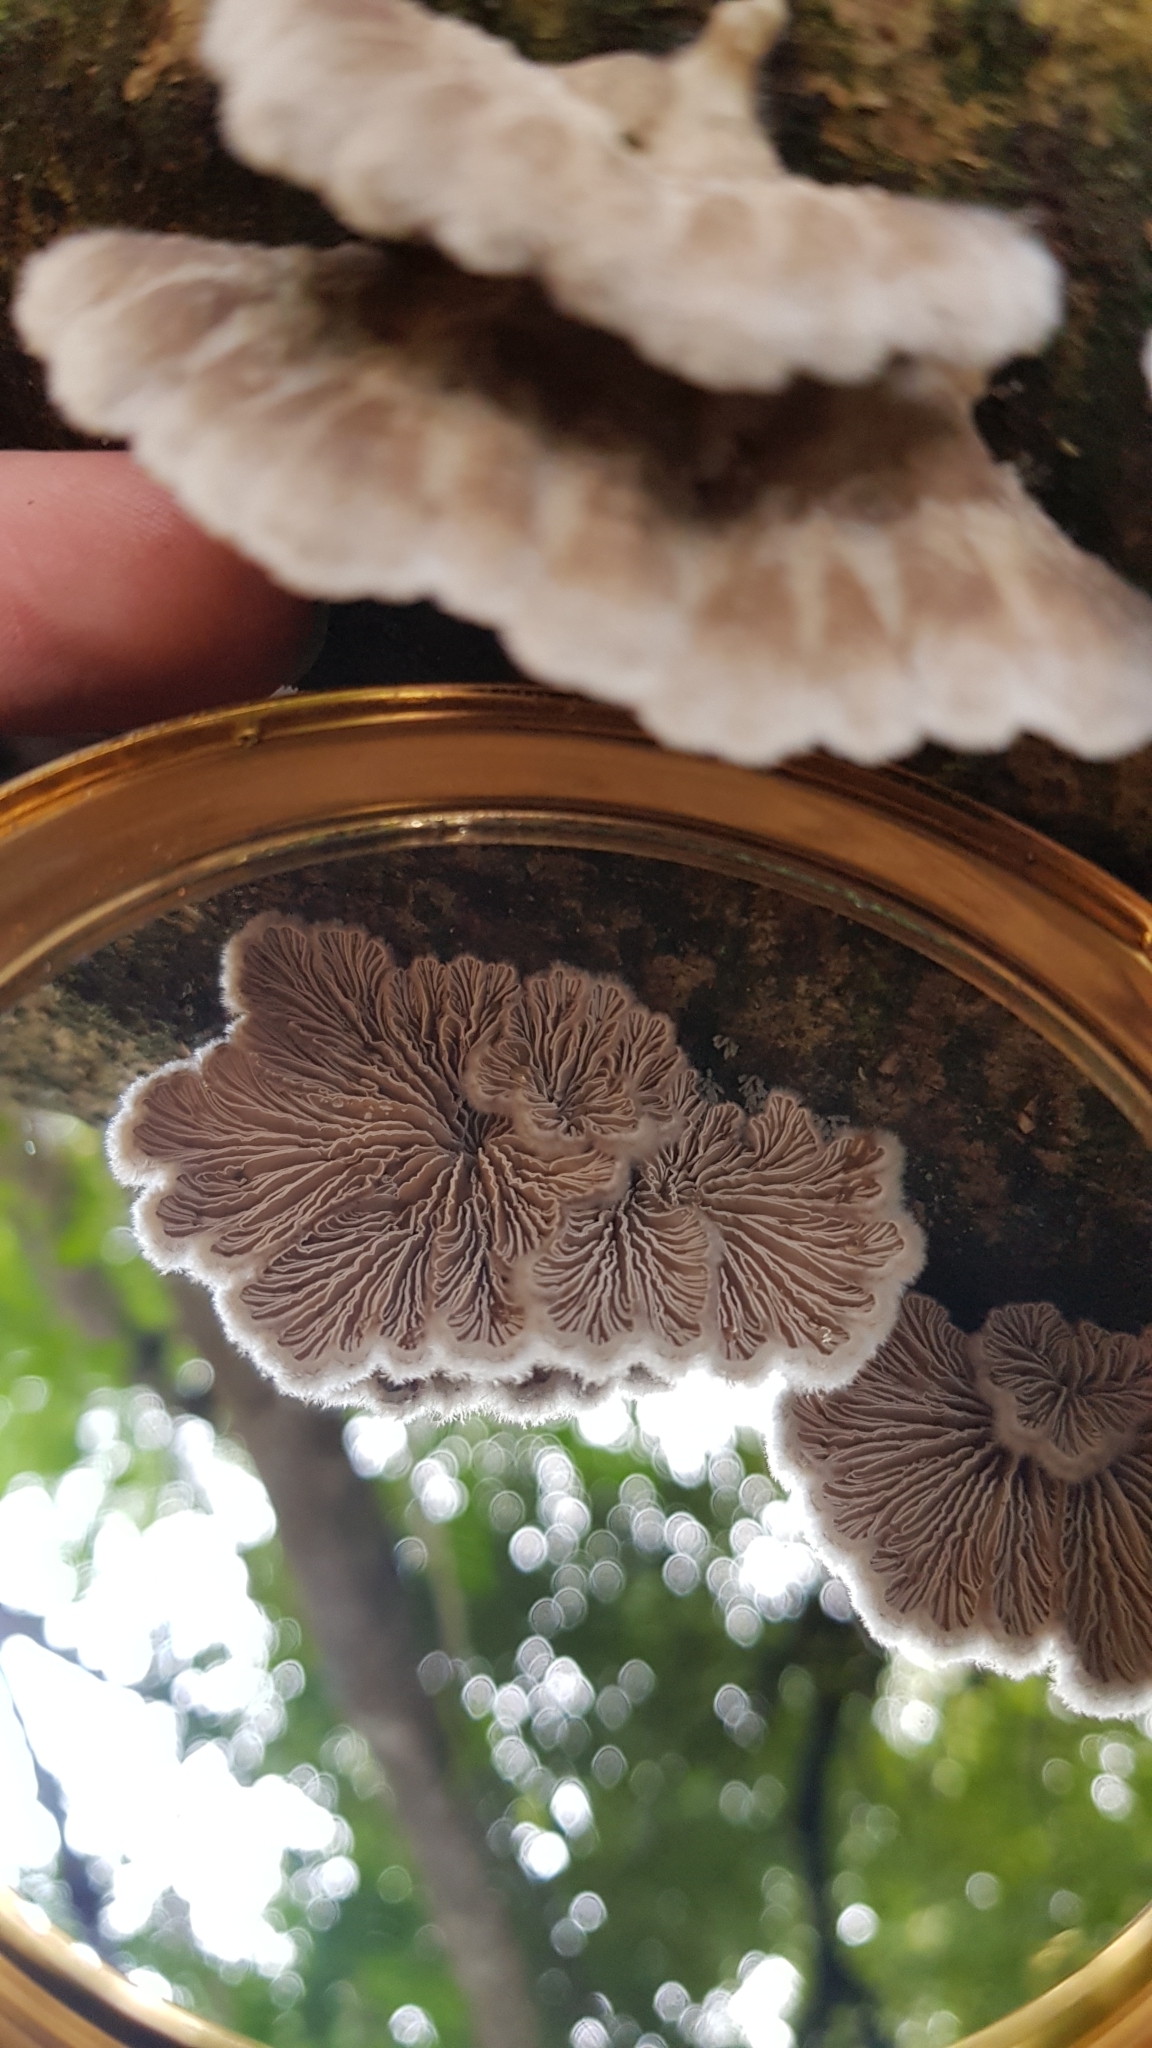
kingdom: Fungi
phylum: Basidiomycota
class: Agaricomycetes
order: Agaricales
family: Schizophyllaceae
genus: Schizophyllum
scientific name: Schizophyllum commune
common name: Common porecrust
